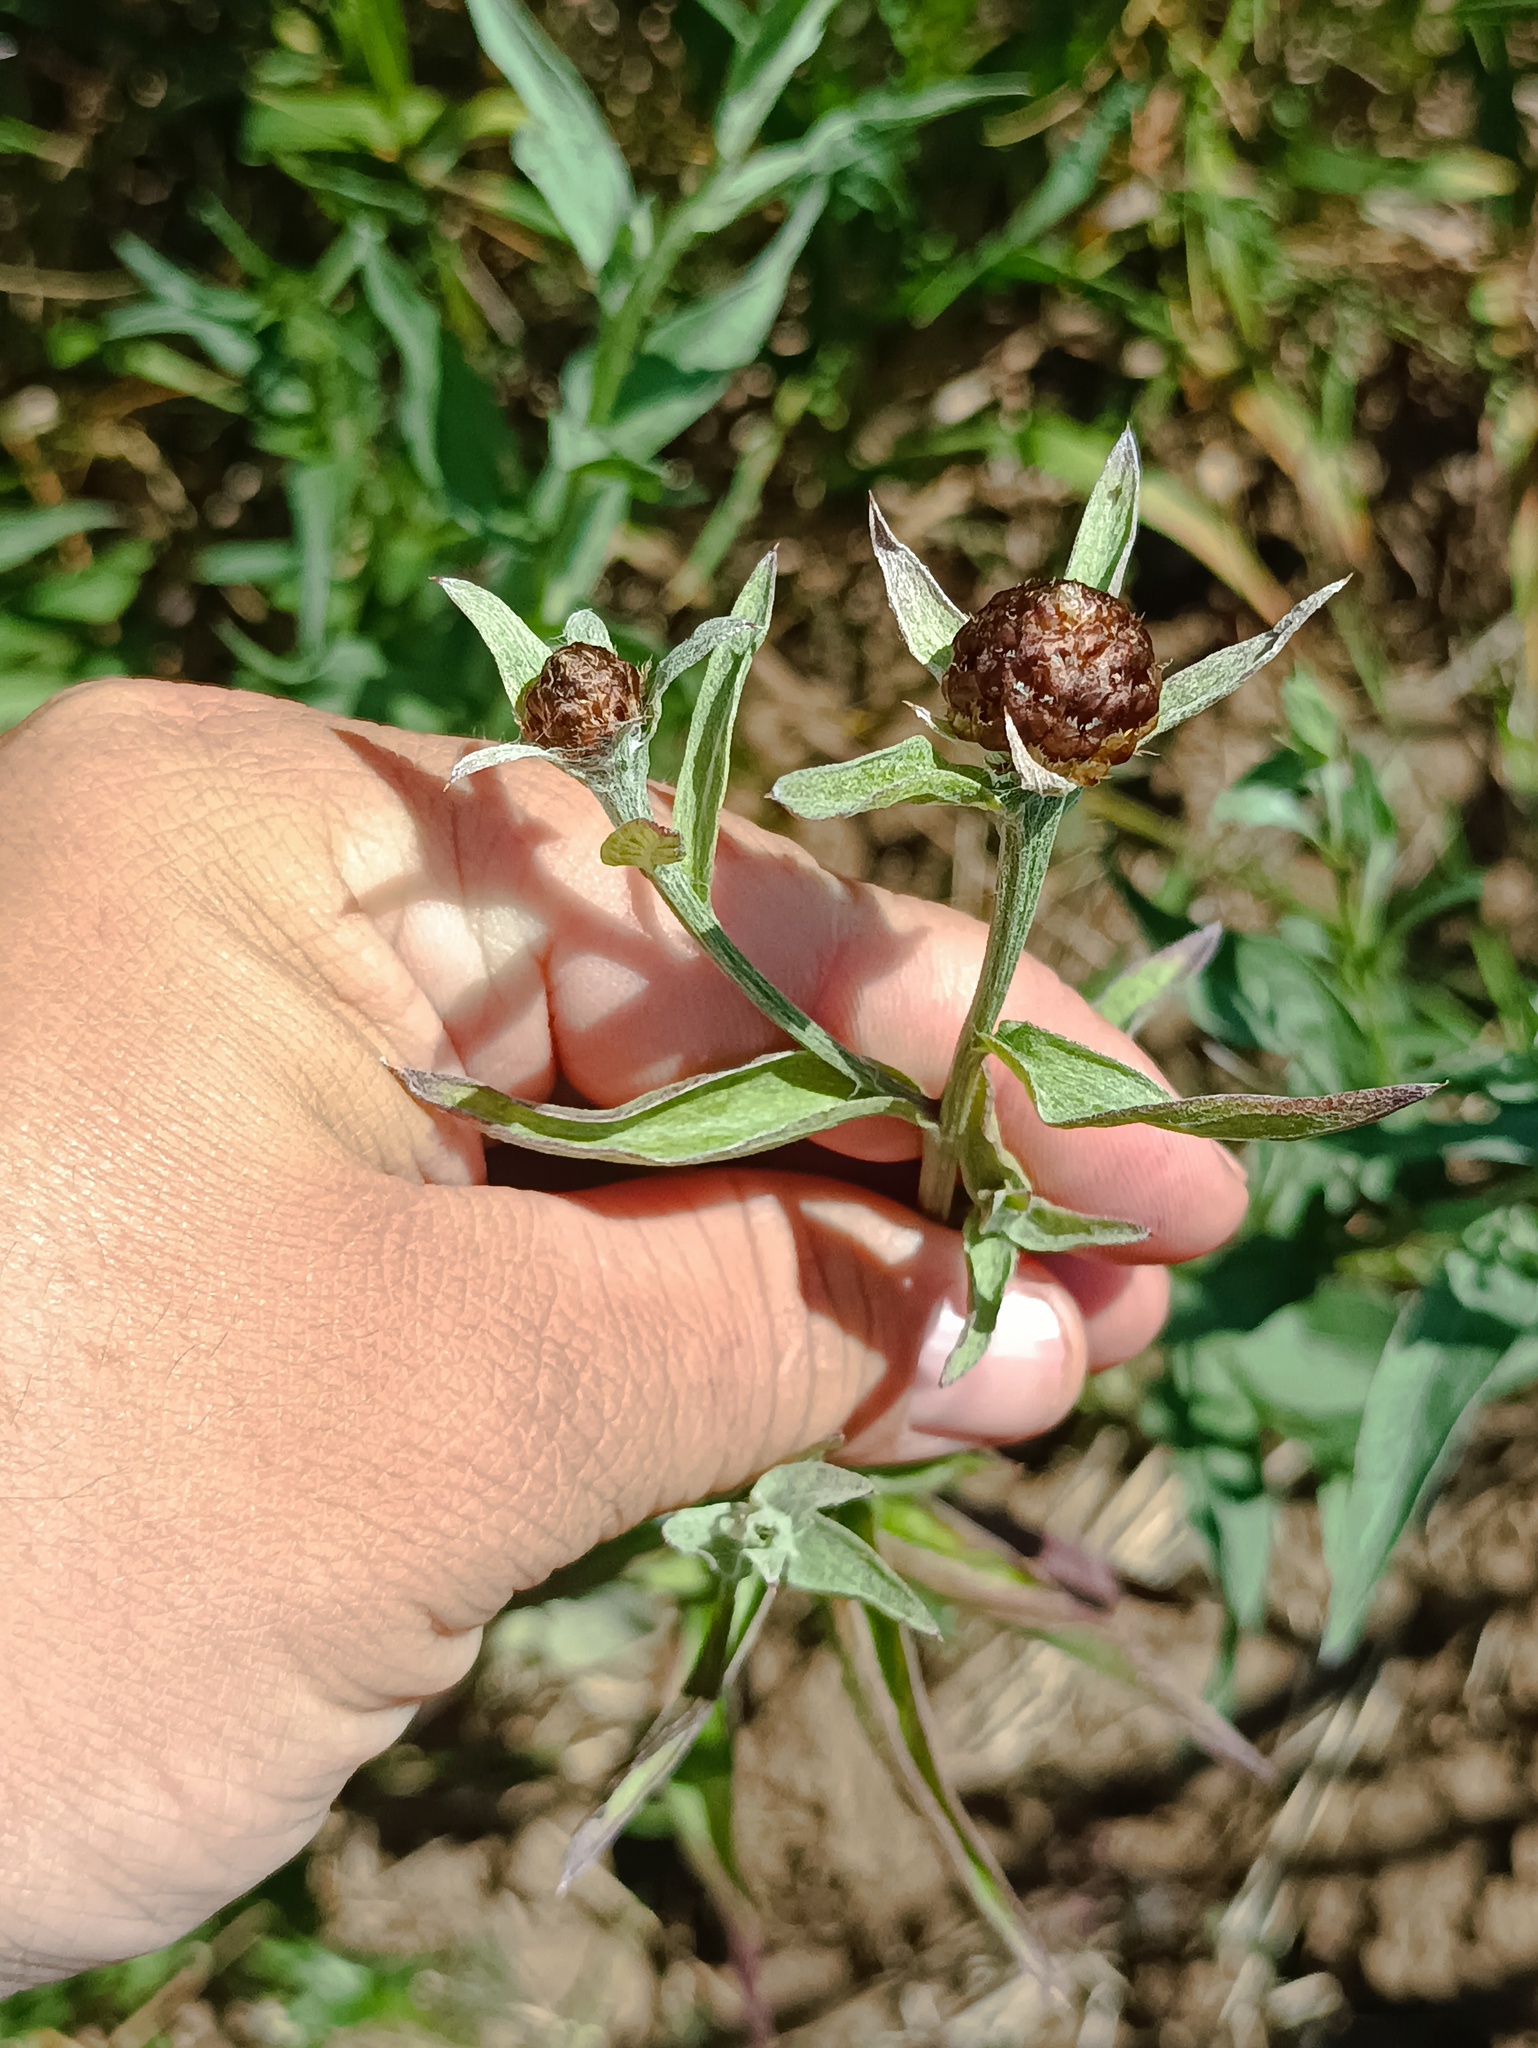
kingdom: Plantae
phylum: Tracheophyta
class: Magnoliopsida
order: Asterales
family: Asteraceae
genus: Centaurea
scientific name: Centaurea jacea
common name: Brown knapweed
